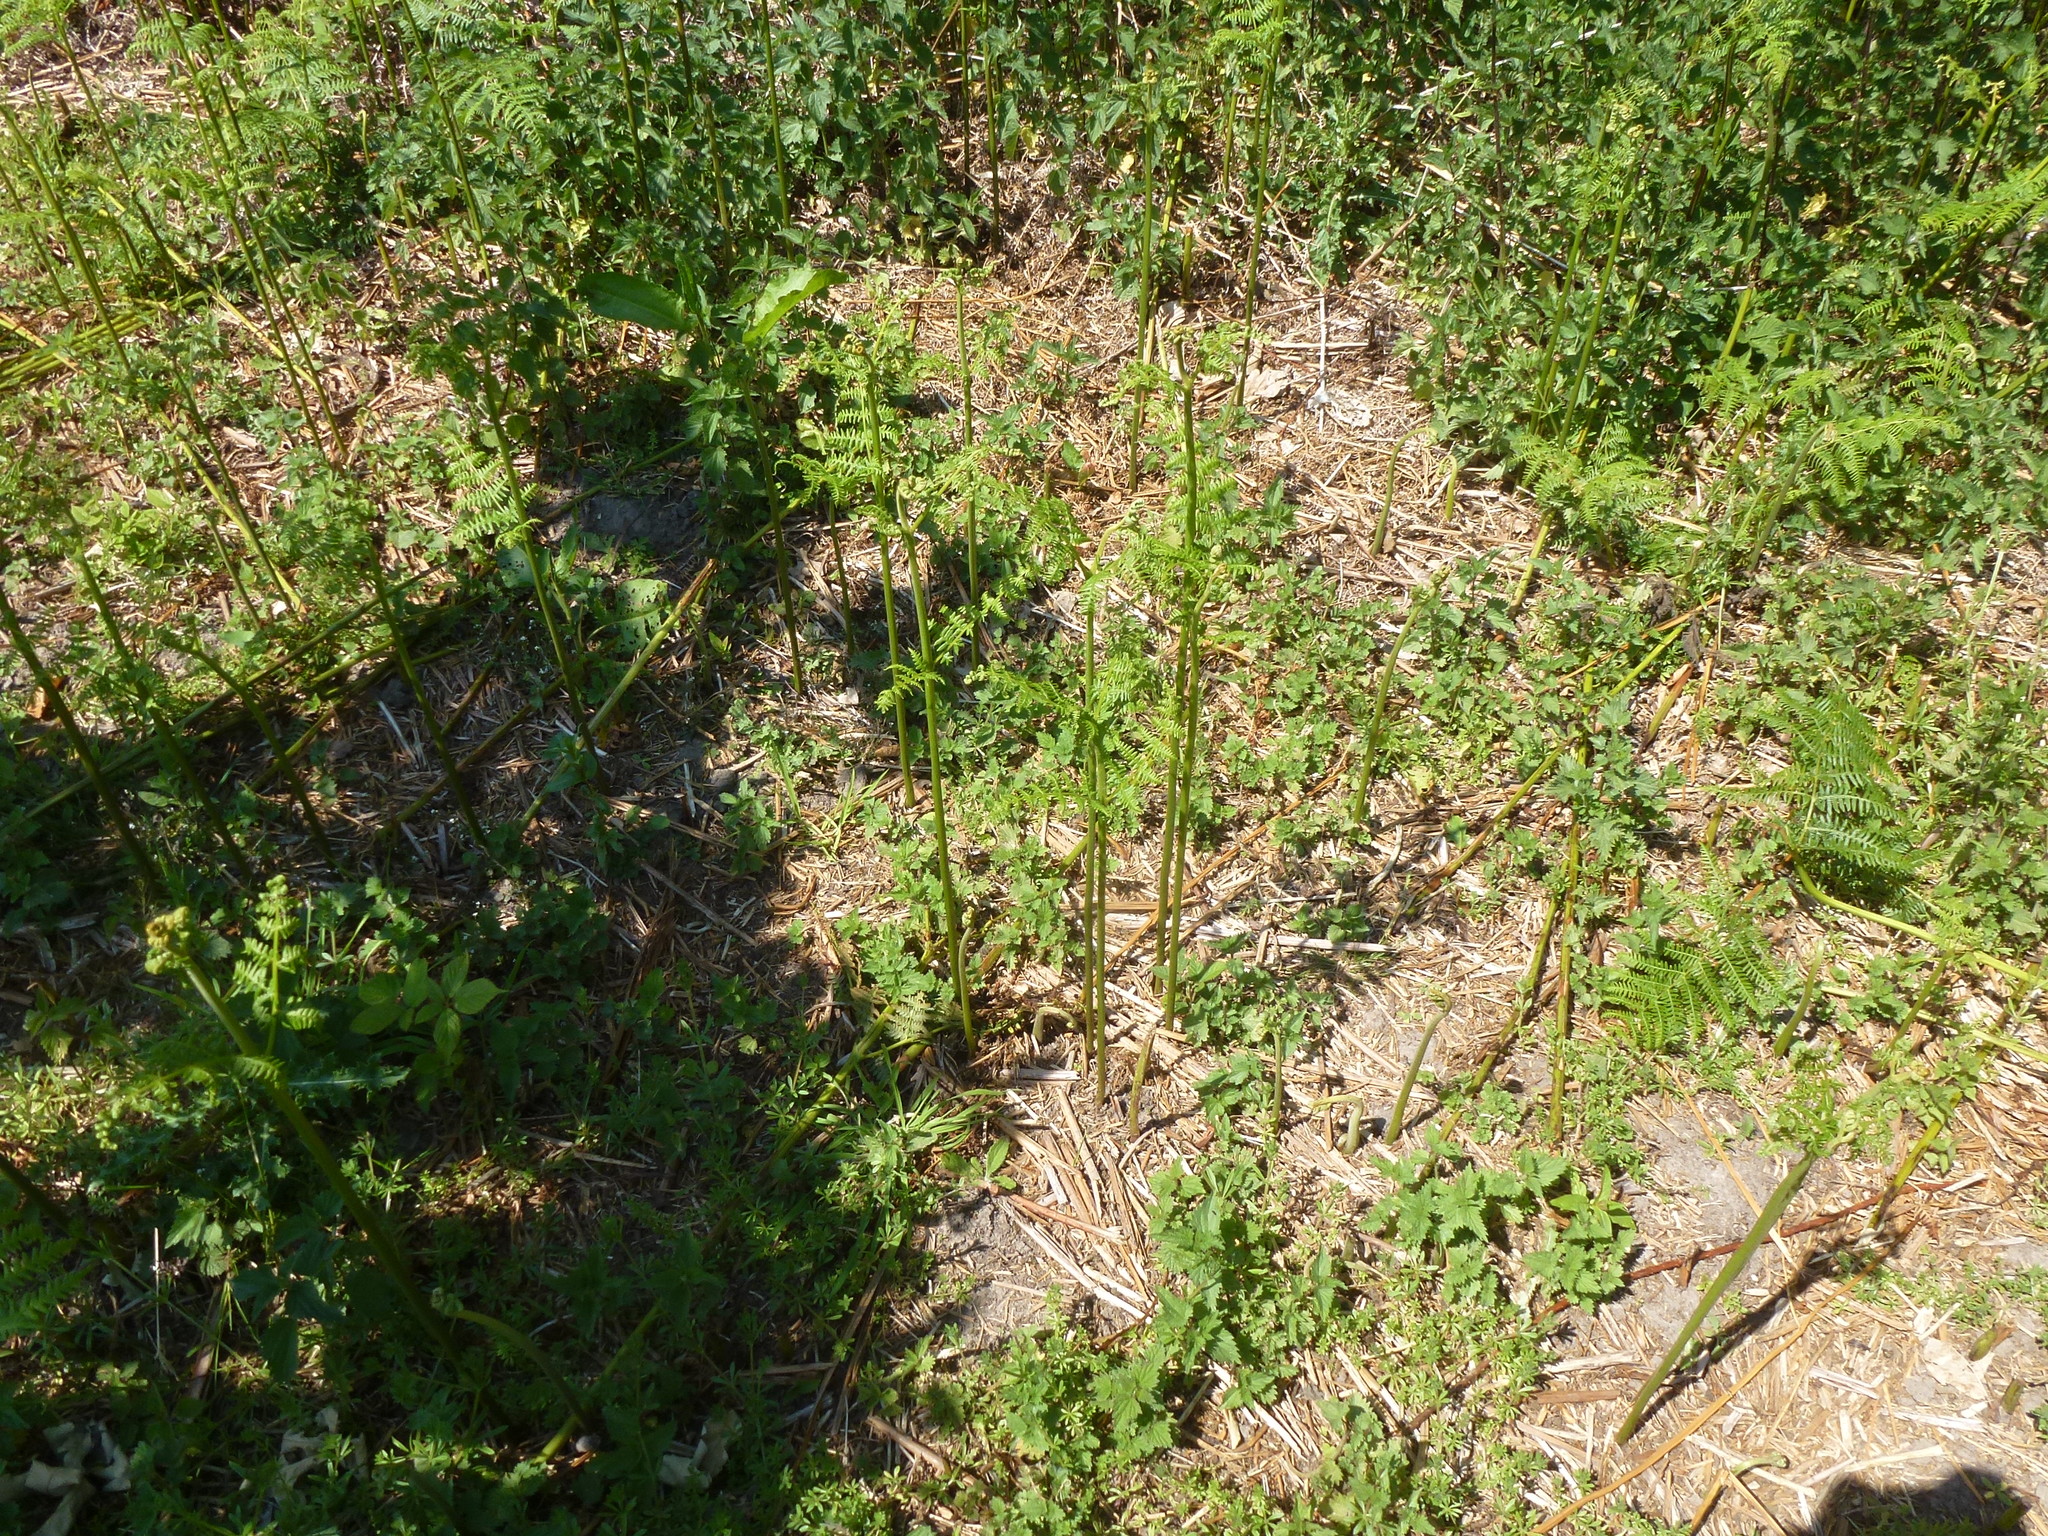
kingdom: Plantae
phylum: Tracheophyta
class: Polypodiopsida
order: Polypodiales
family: Dennstaedtiaceae
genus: Pteridium
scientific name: Pteridium aquilinum
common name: Bracken
